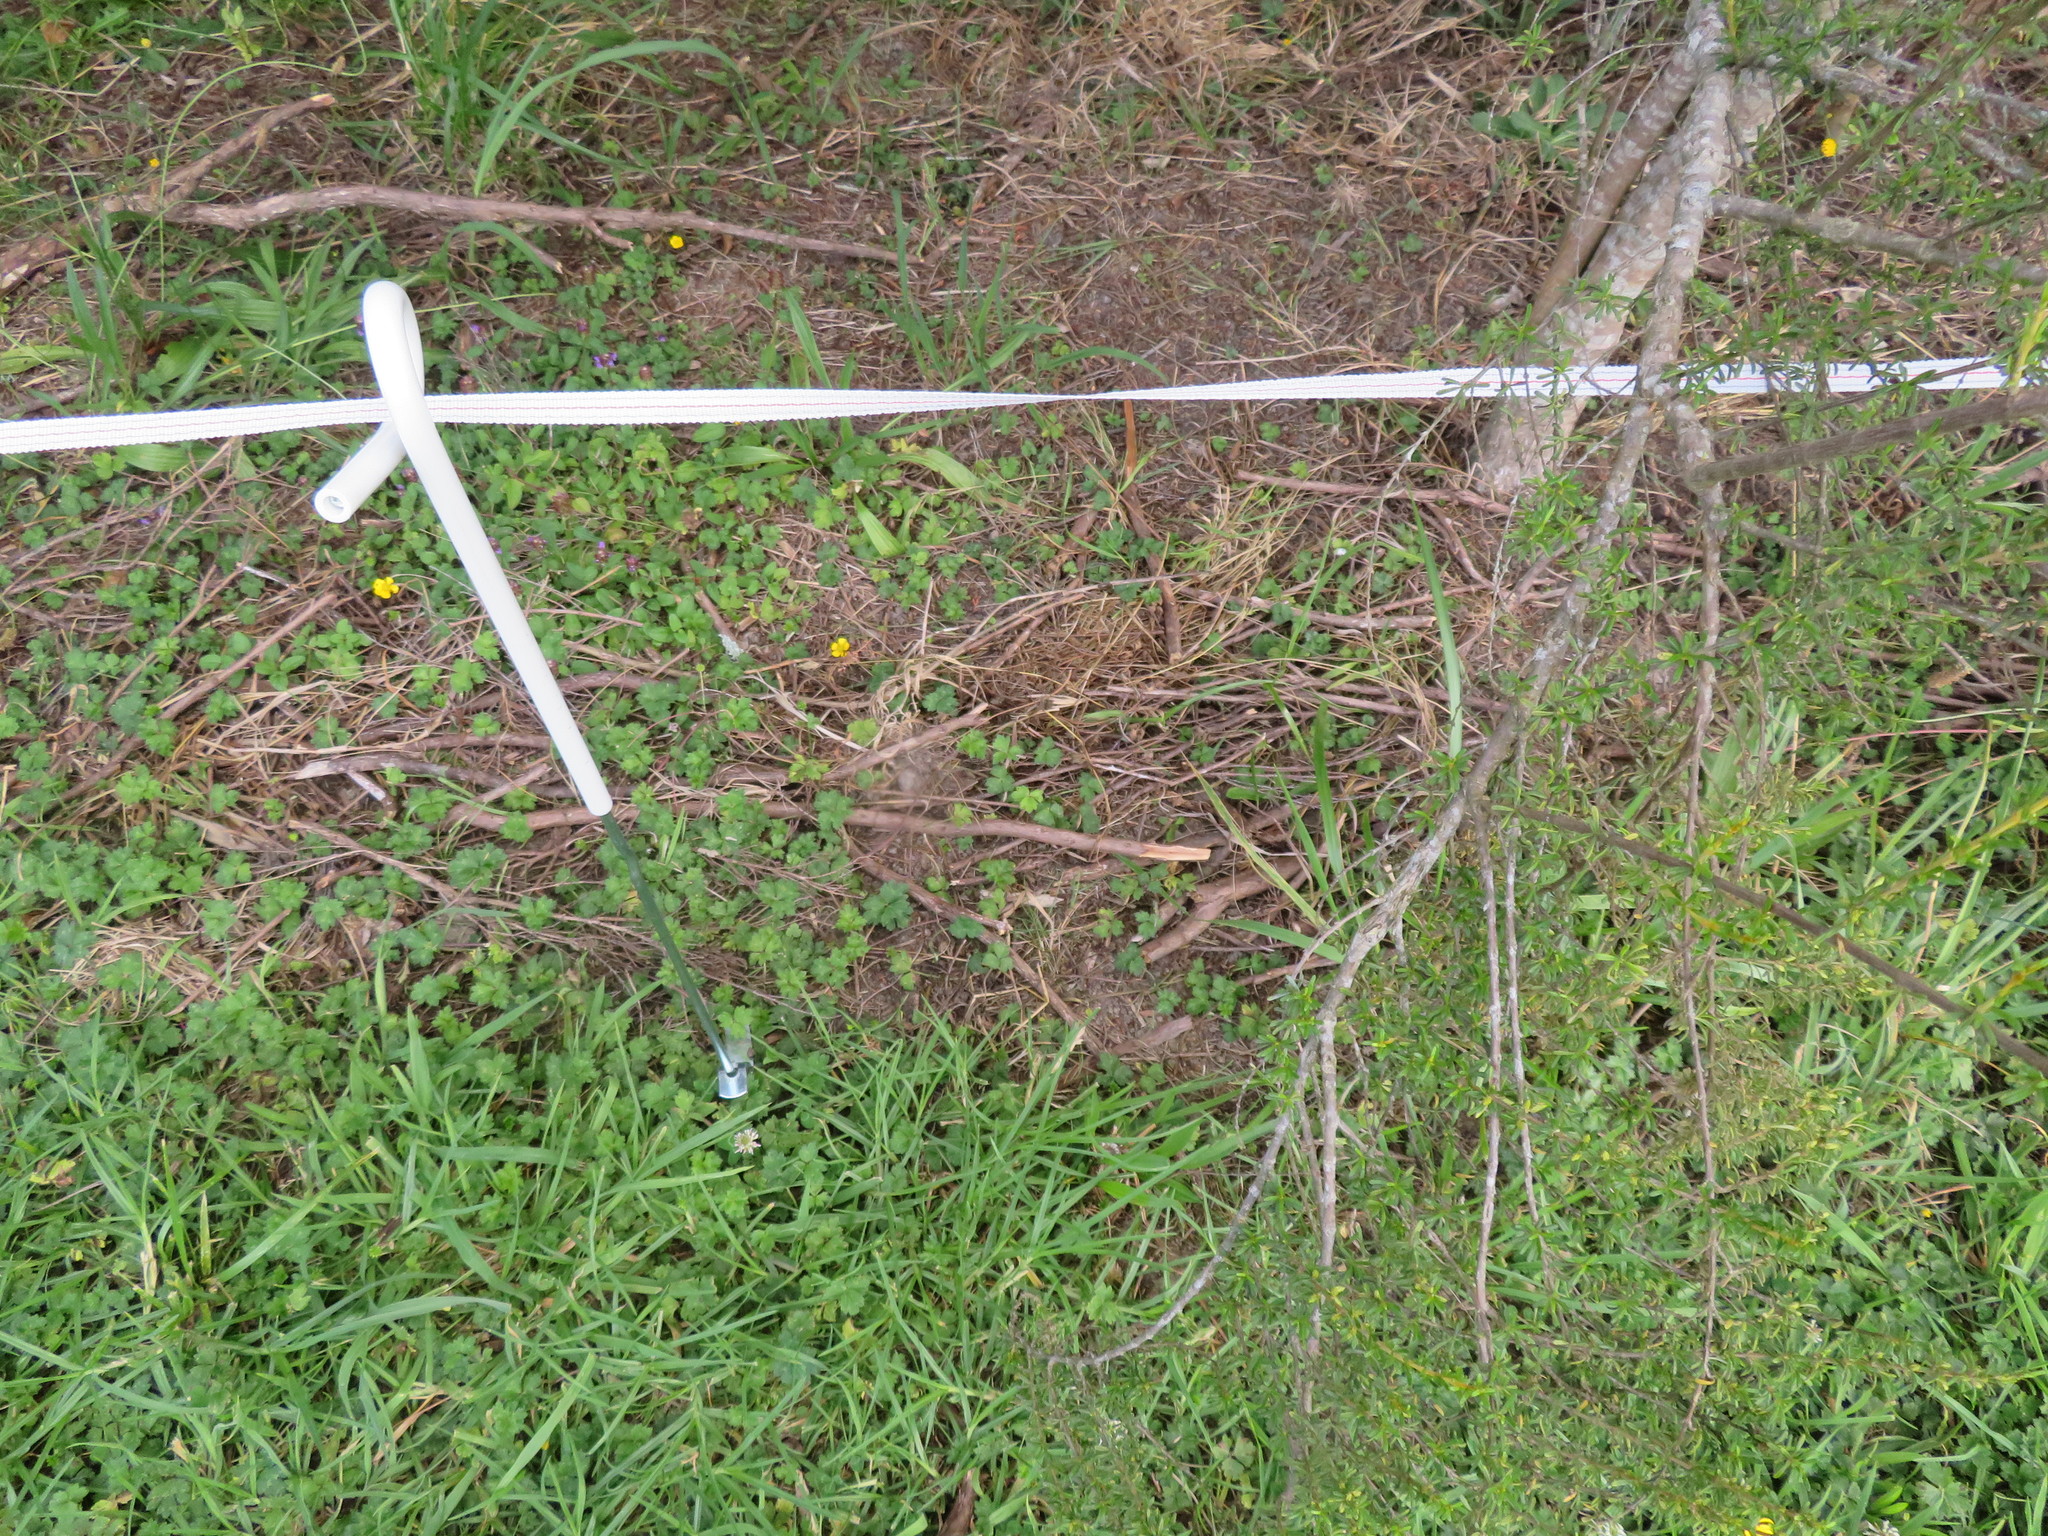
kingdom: Plantae
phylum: Tracheophyta
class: Magnoliopsida
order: Ranunculales
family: Ranunculaceae
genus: Ranunculus
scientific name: Ranunculus repens
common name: Creeping buttercup
